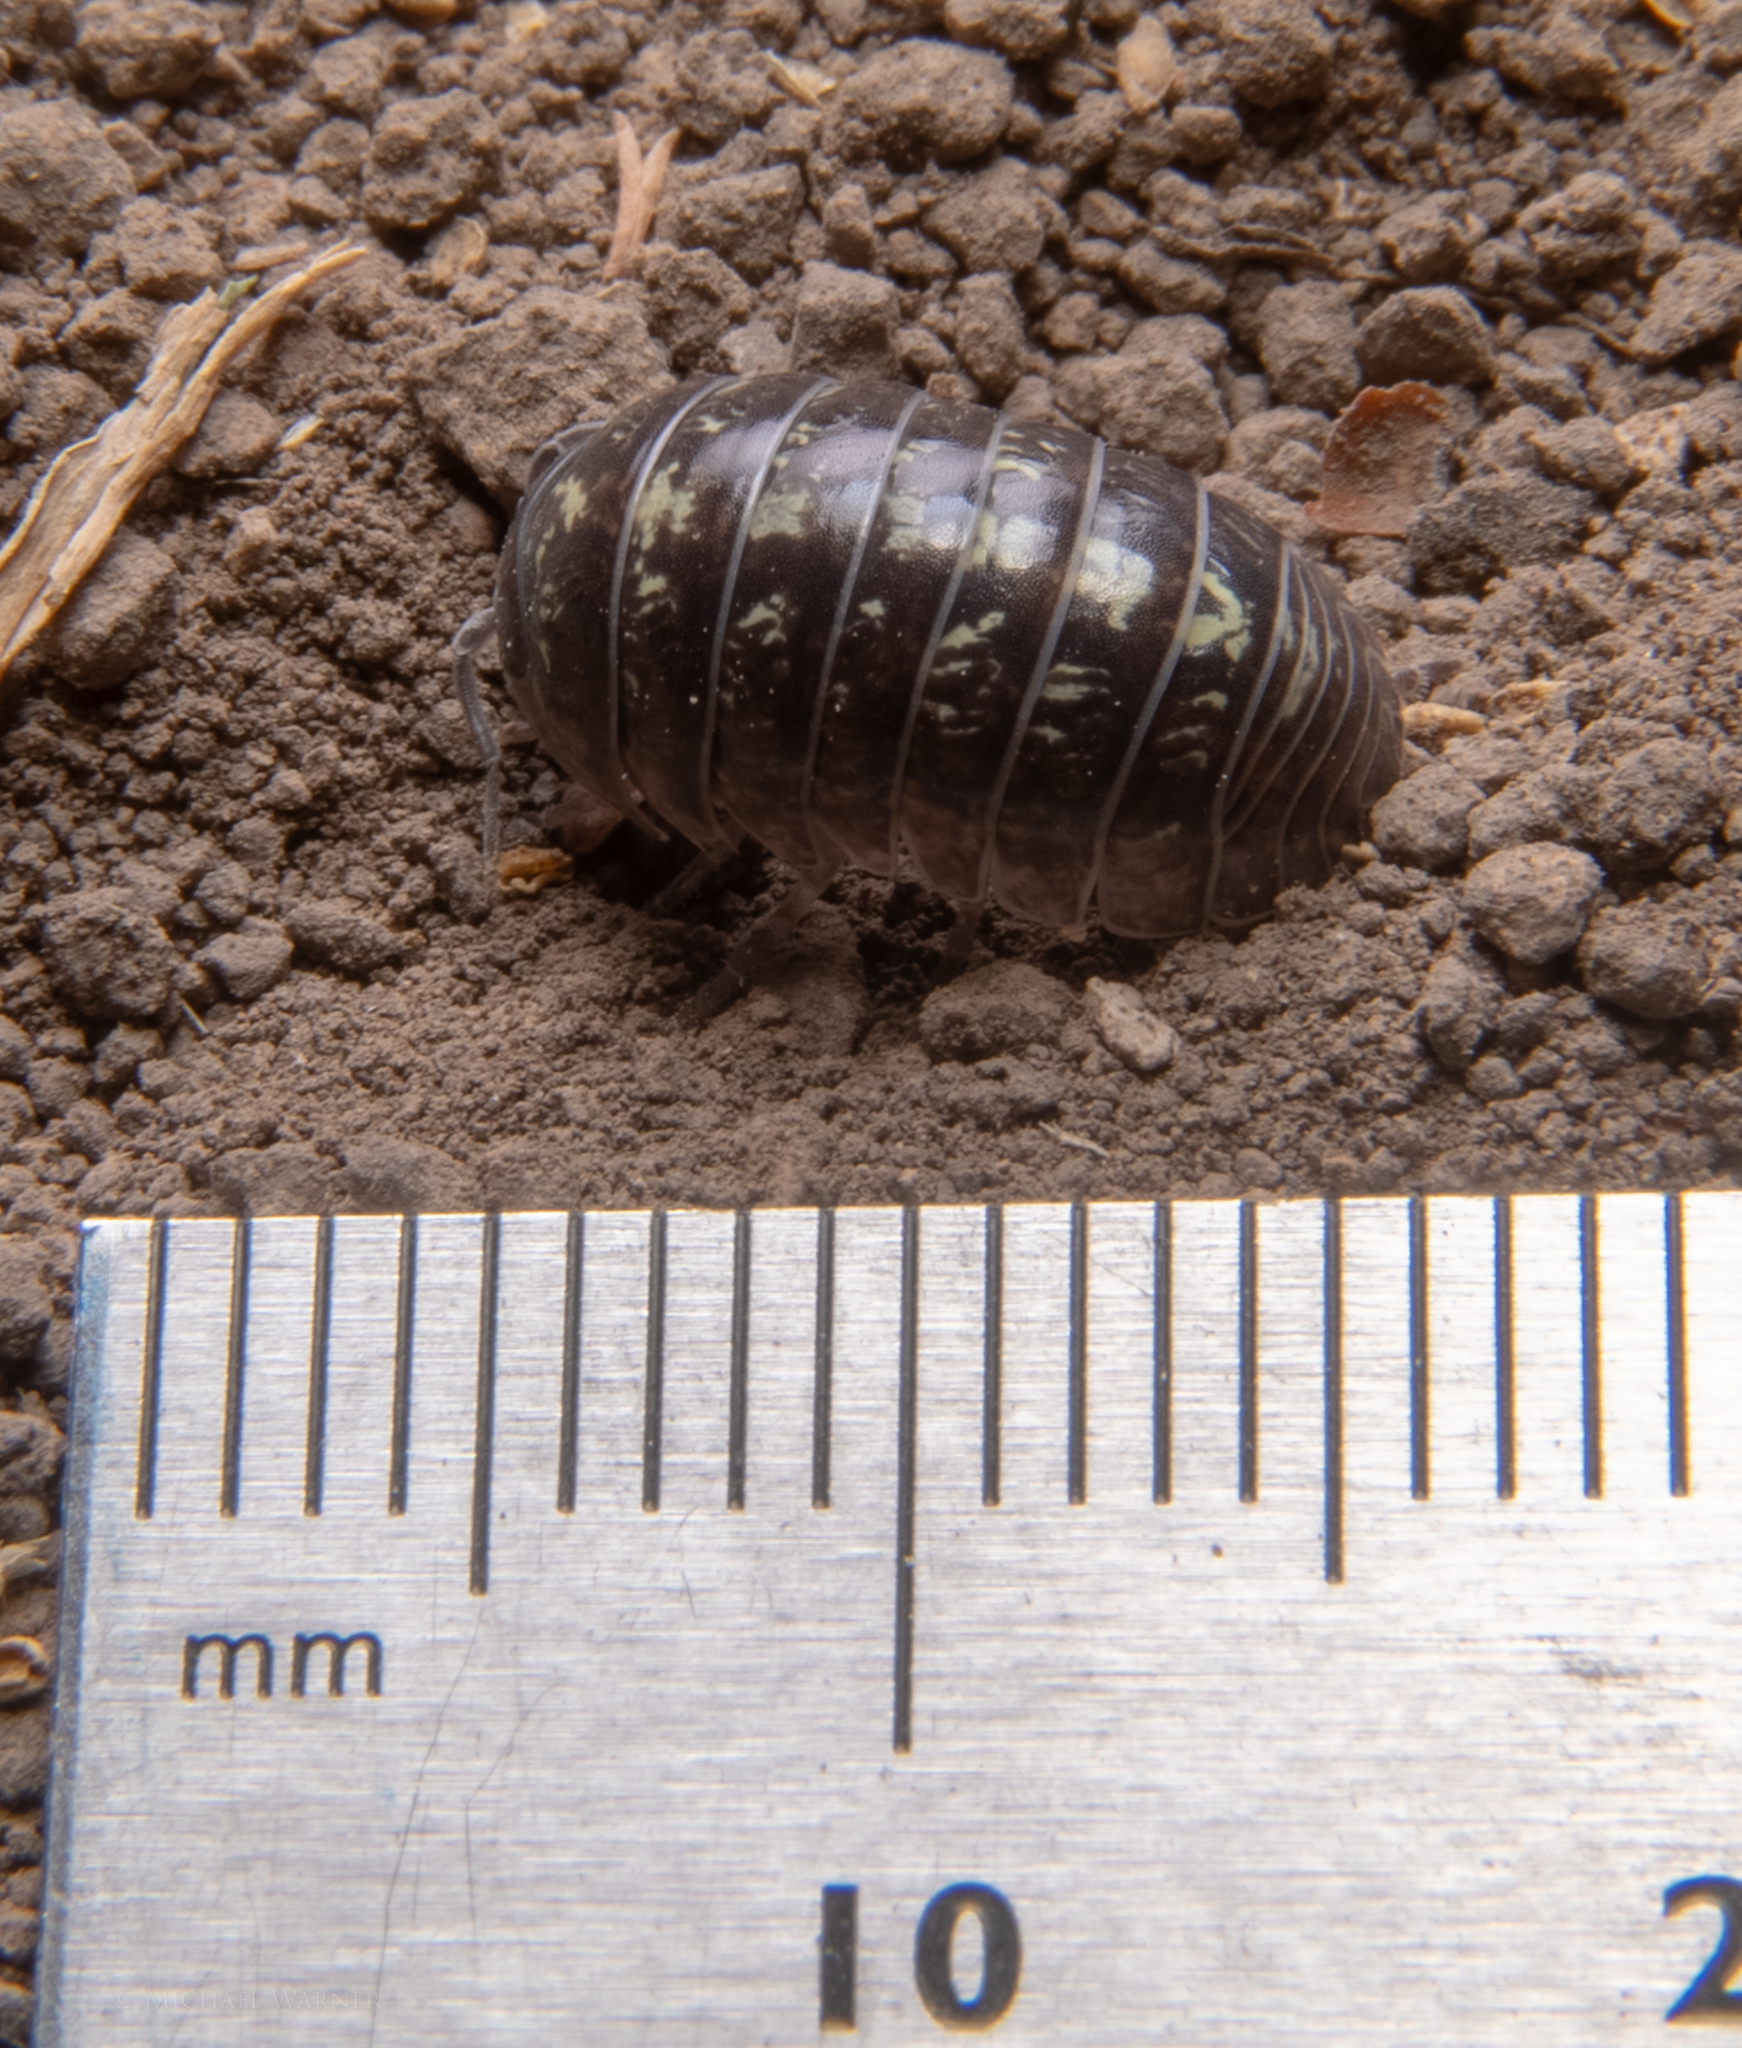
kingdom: Animalia
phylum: Arthropoda
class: Malacostraca
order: Isopoda
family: Armadillidiidae
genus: Armadillidium
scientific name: Armadillidium vulgare
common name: Common pill woodlouse
